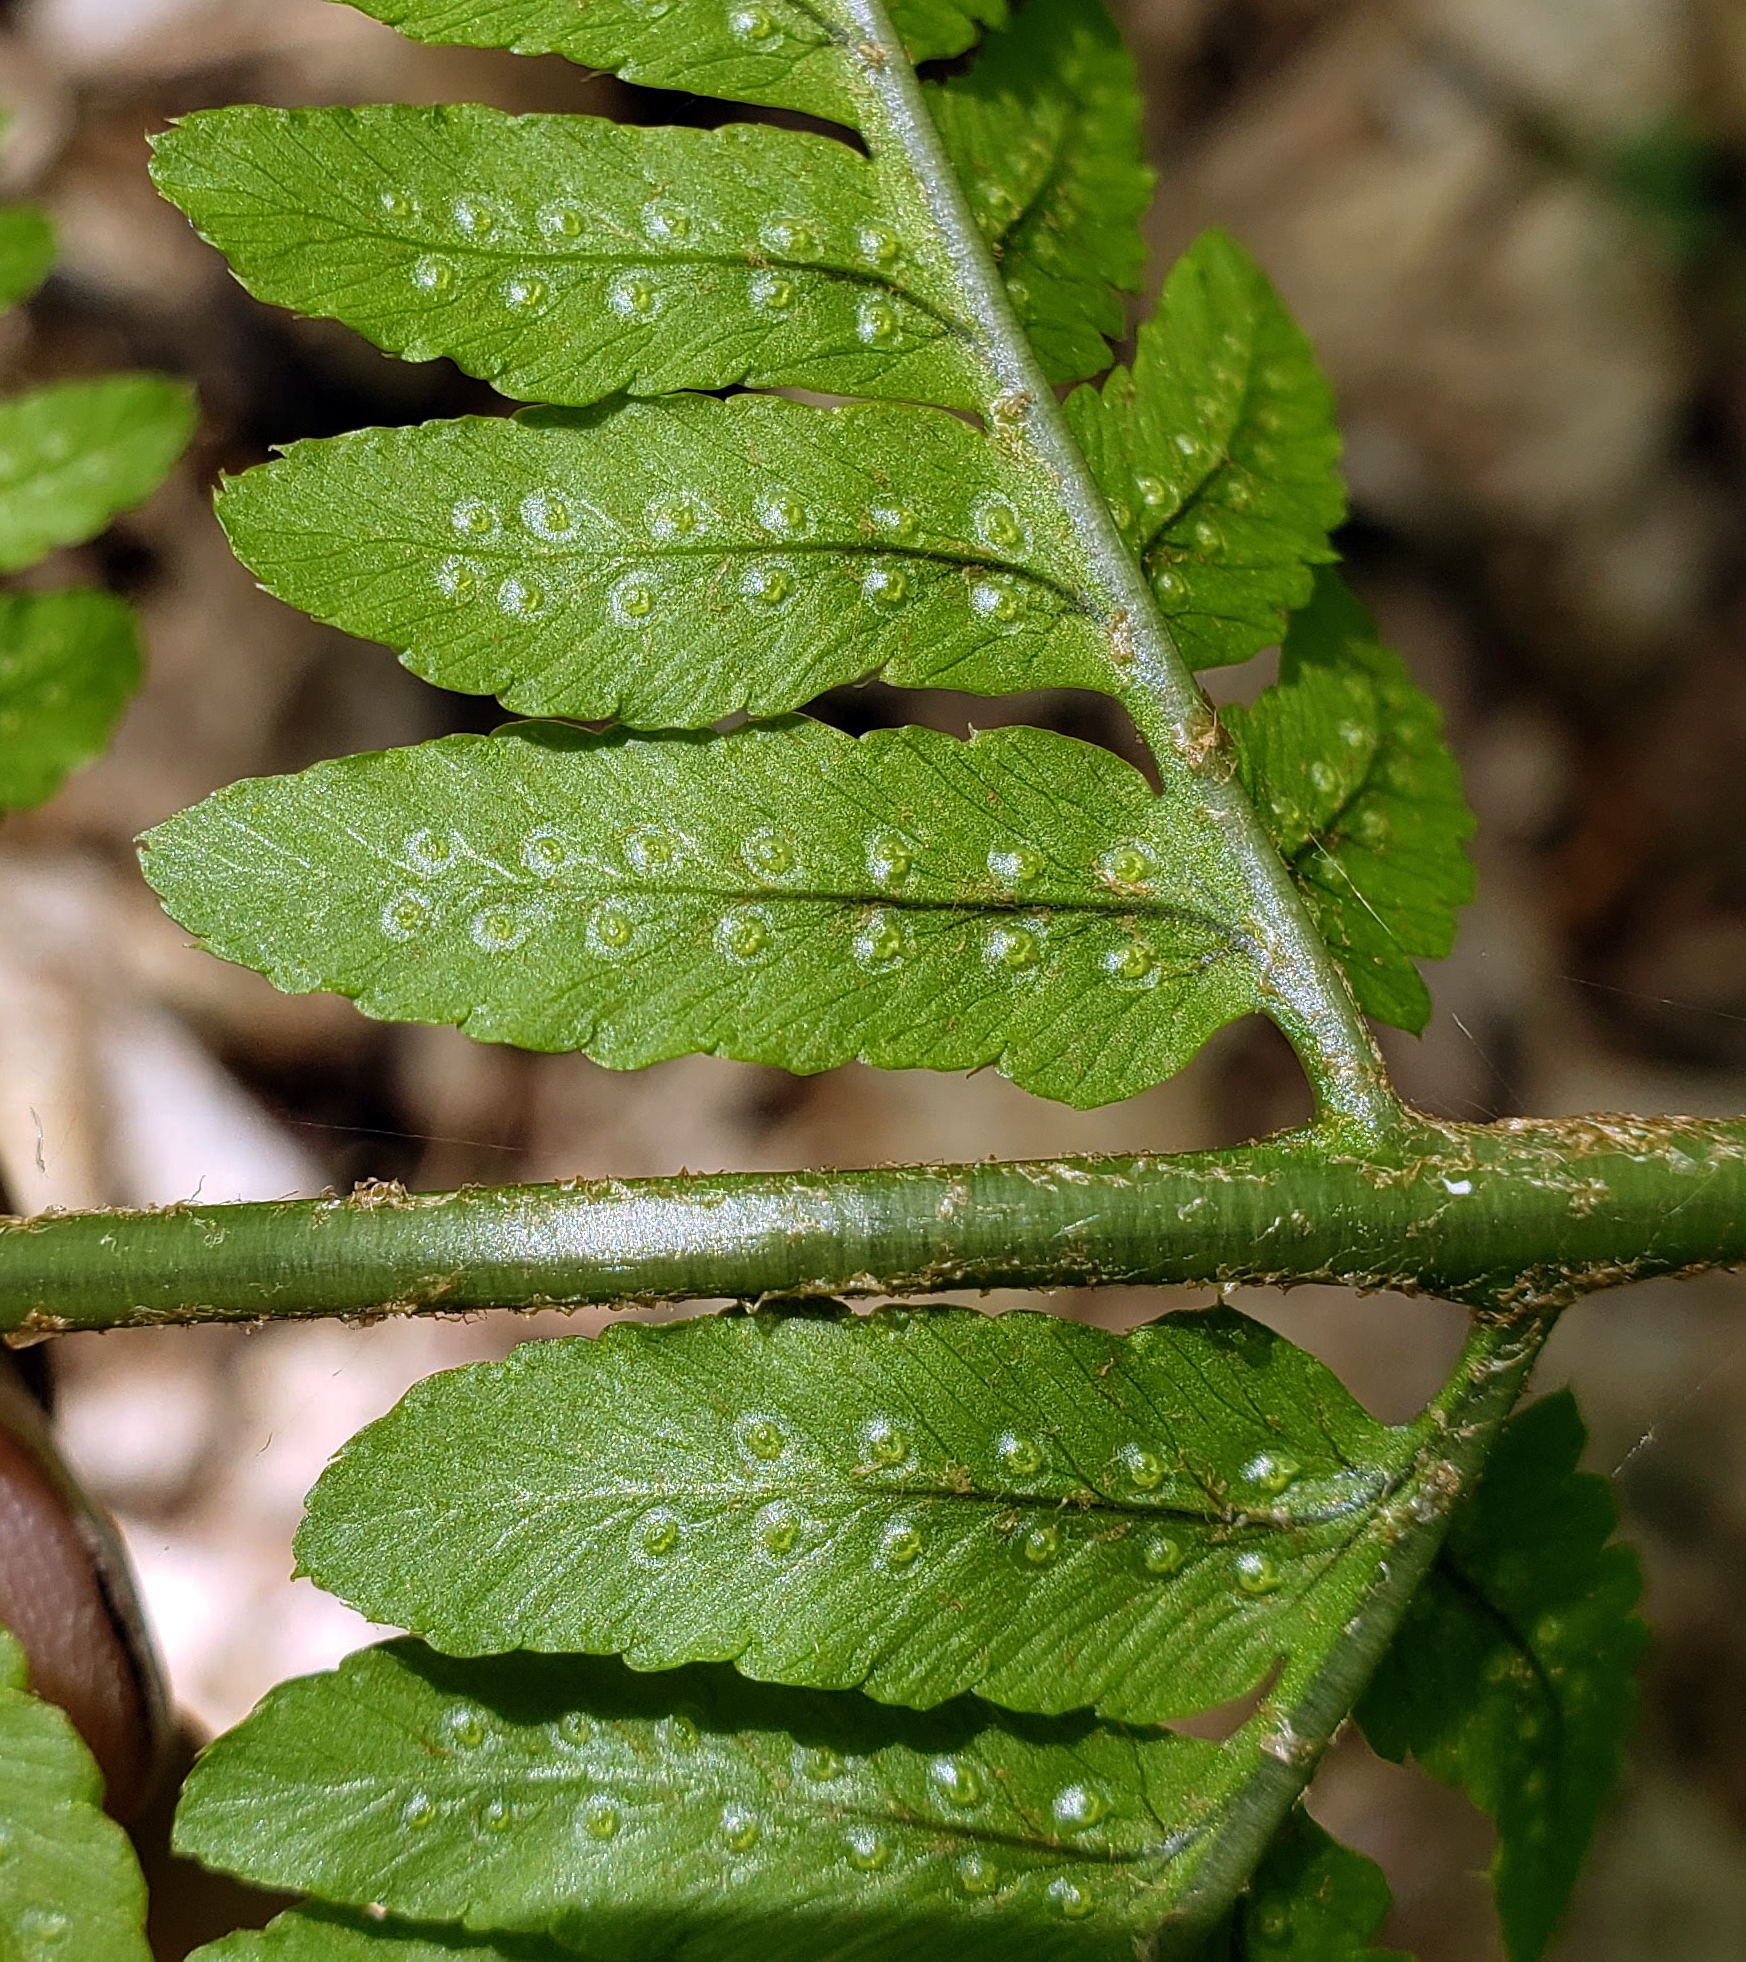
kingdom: Plantae
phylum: Tracheophyta
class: Polypodiopsida
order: Polypodiales
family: Dryopteridaceae
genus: Dryopteris
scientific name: Dryopteris goldieana
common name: Goldie's fern
